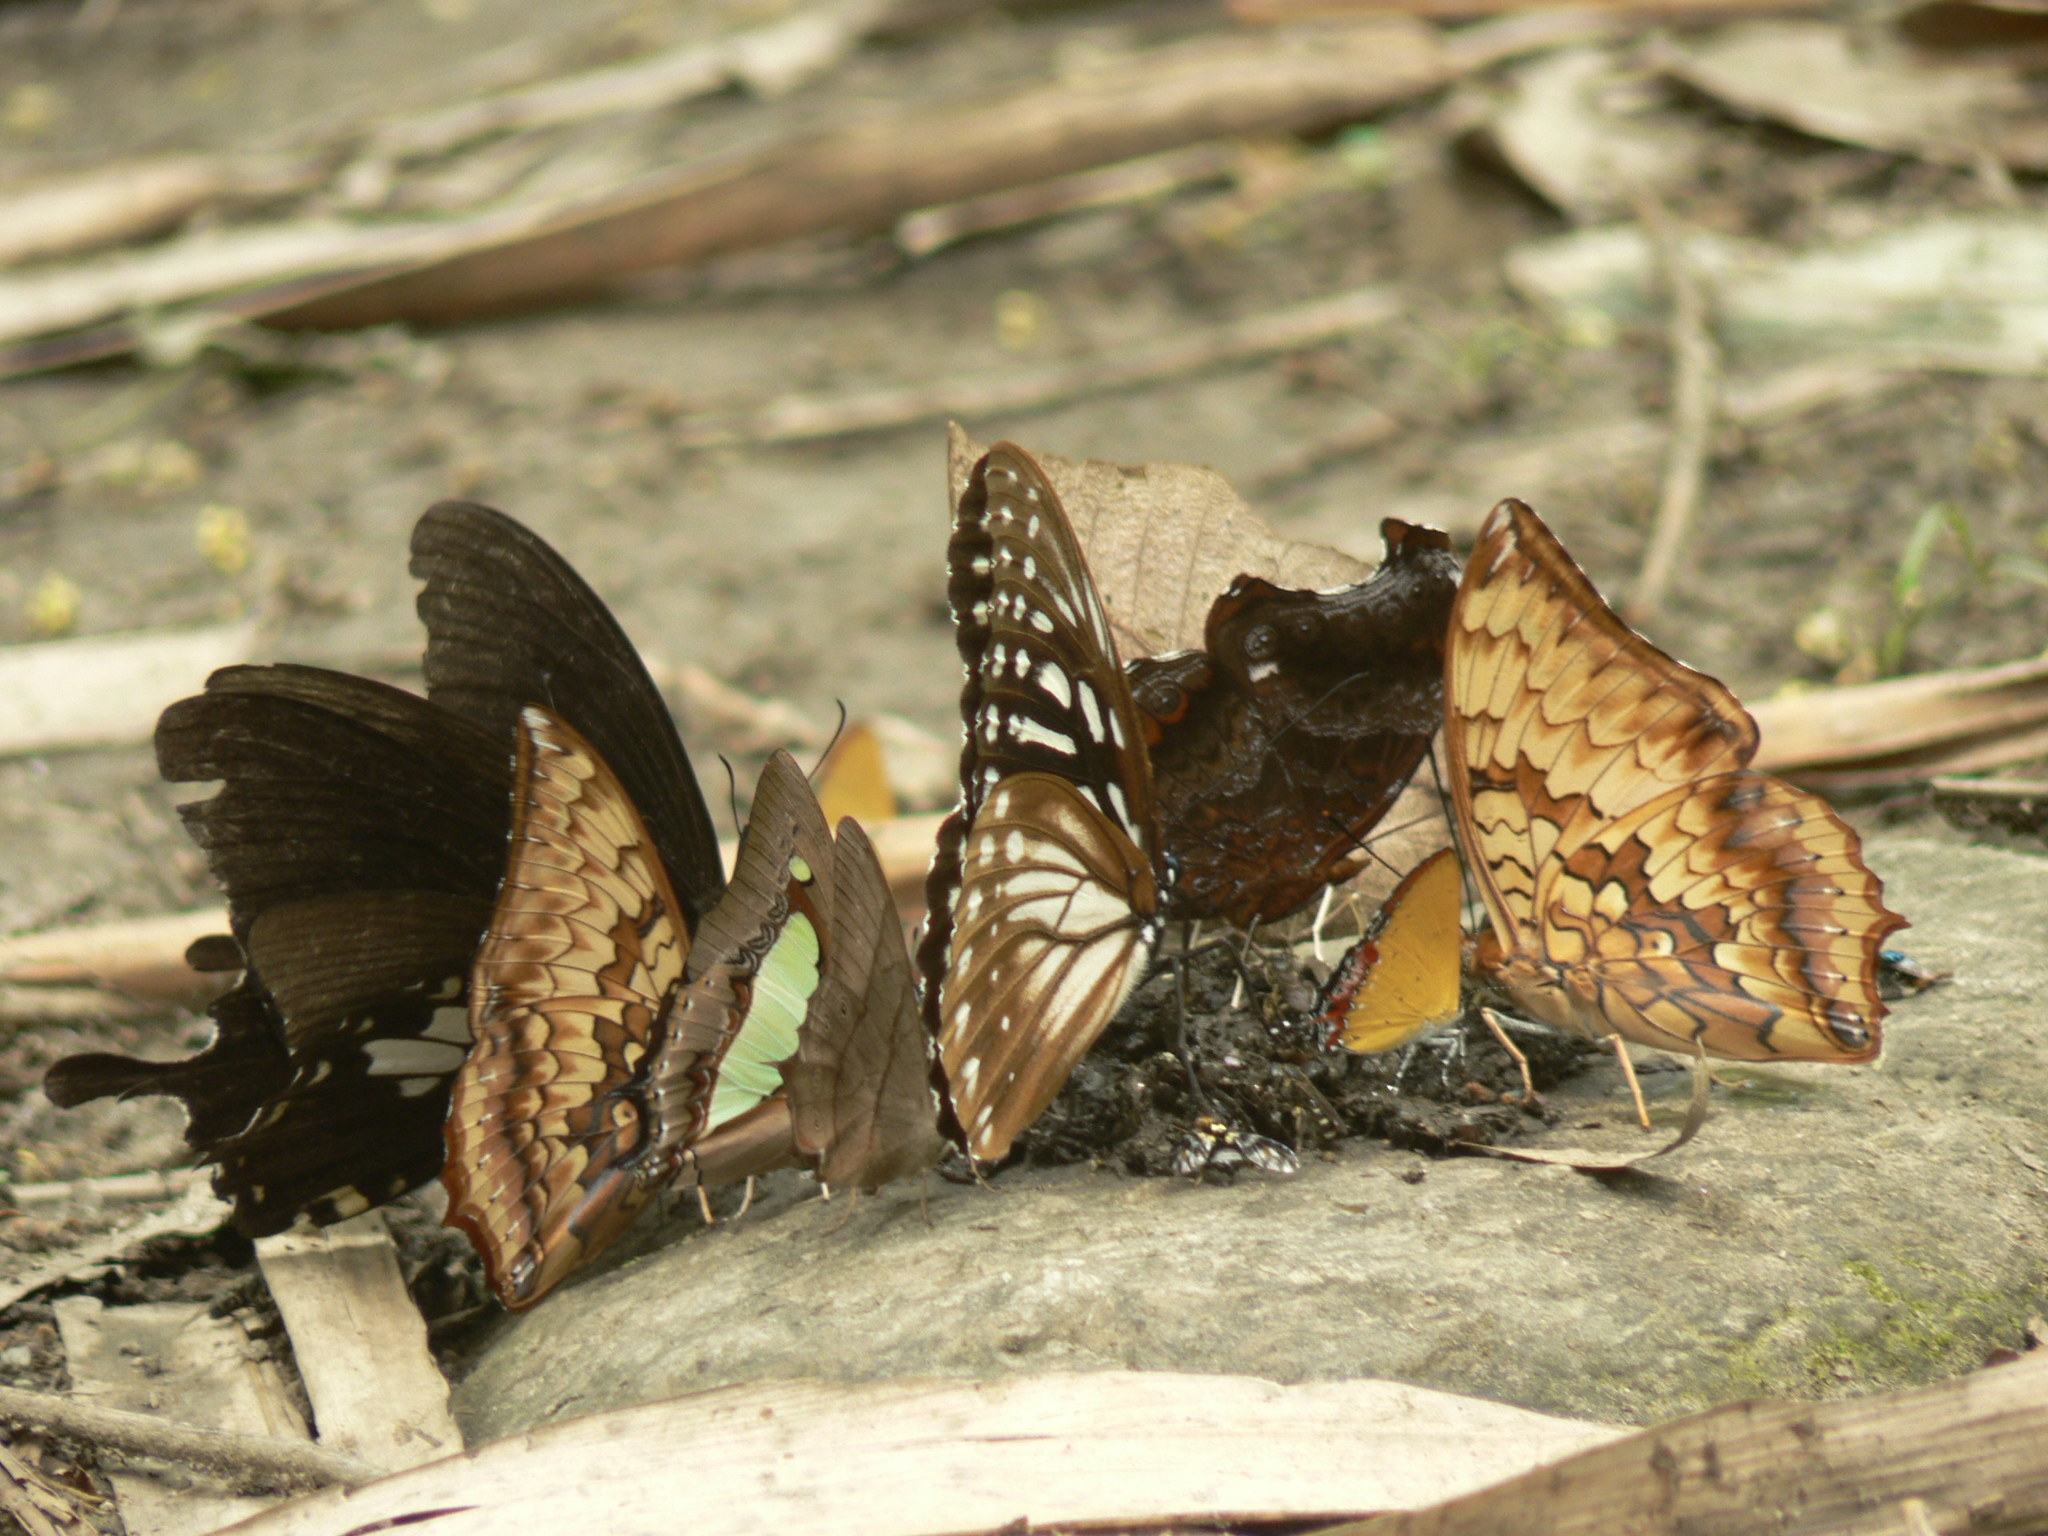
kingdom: Animalia
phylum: Arthropoda
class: Insecta
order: Lepidoptera
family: Nymphalidae
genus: Penthema
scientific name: Penthema lisarda
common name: Yellow kaiser
